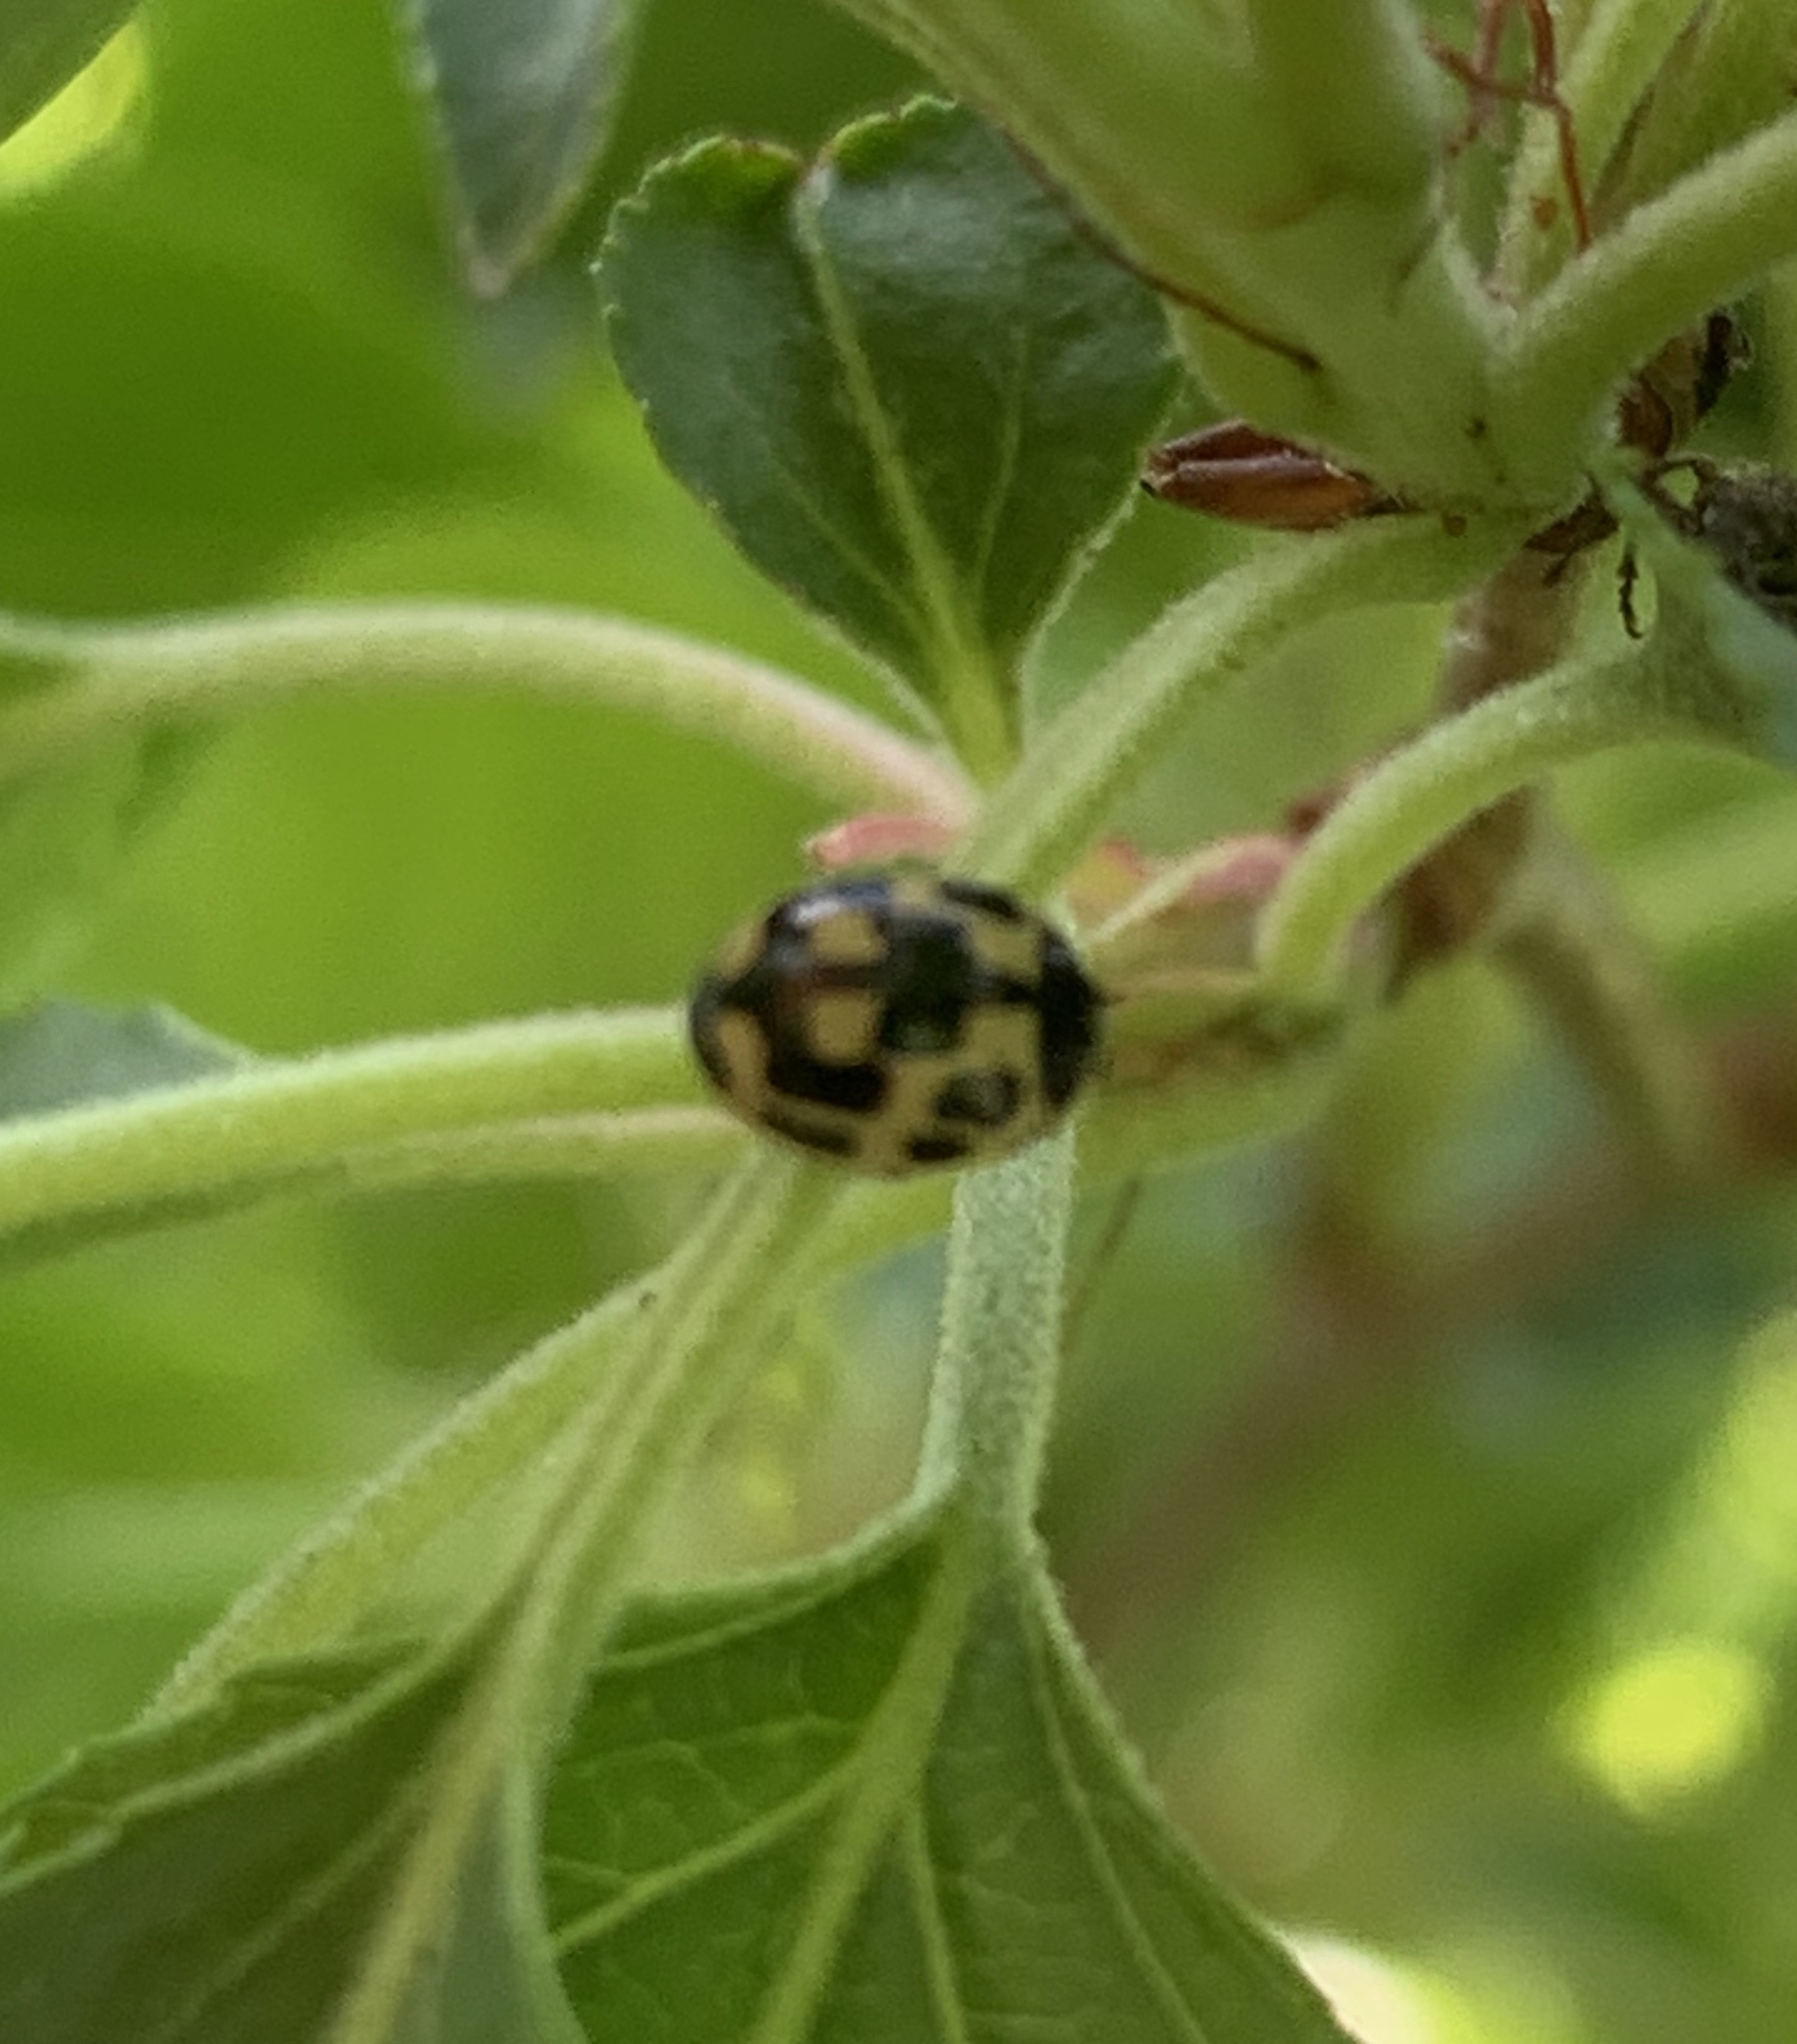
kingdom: Animalia
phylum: Arthropoda
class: Insecta
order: Coleoptera
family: Coccinellidae
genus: Propylaea
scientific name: Propylaea quatuordecimpunctata
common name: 14-spotted ladybird beetle
